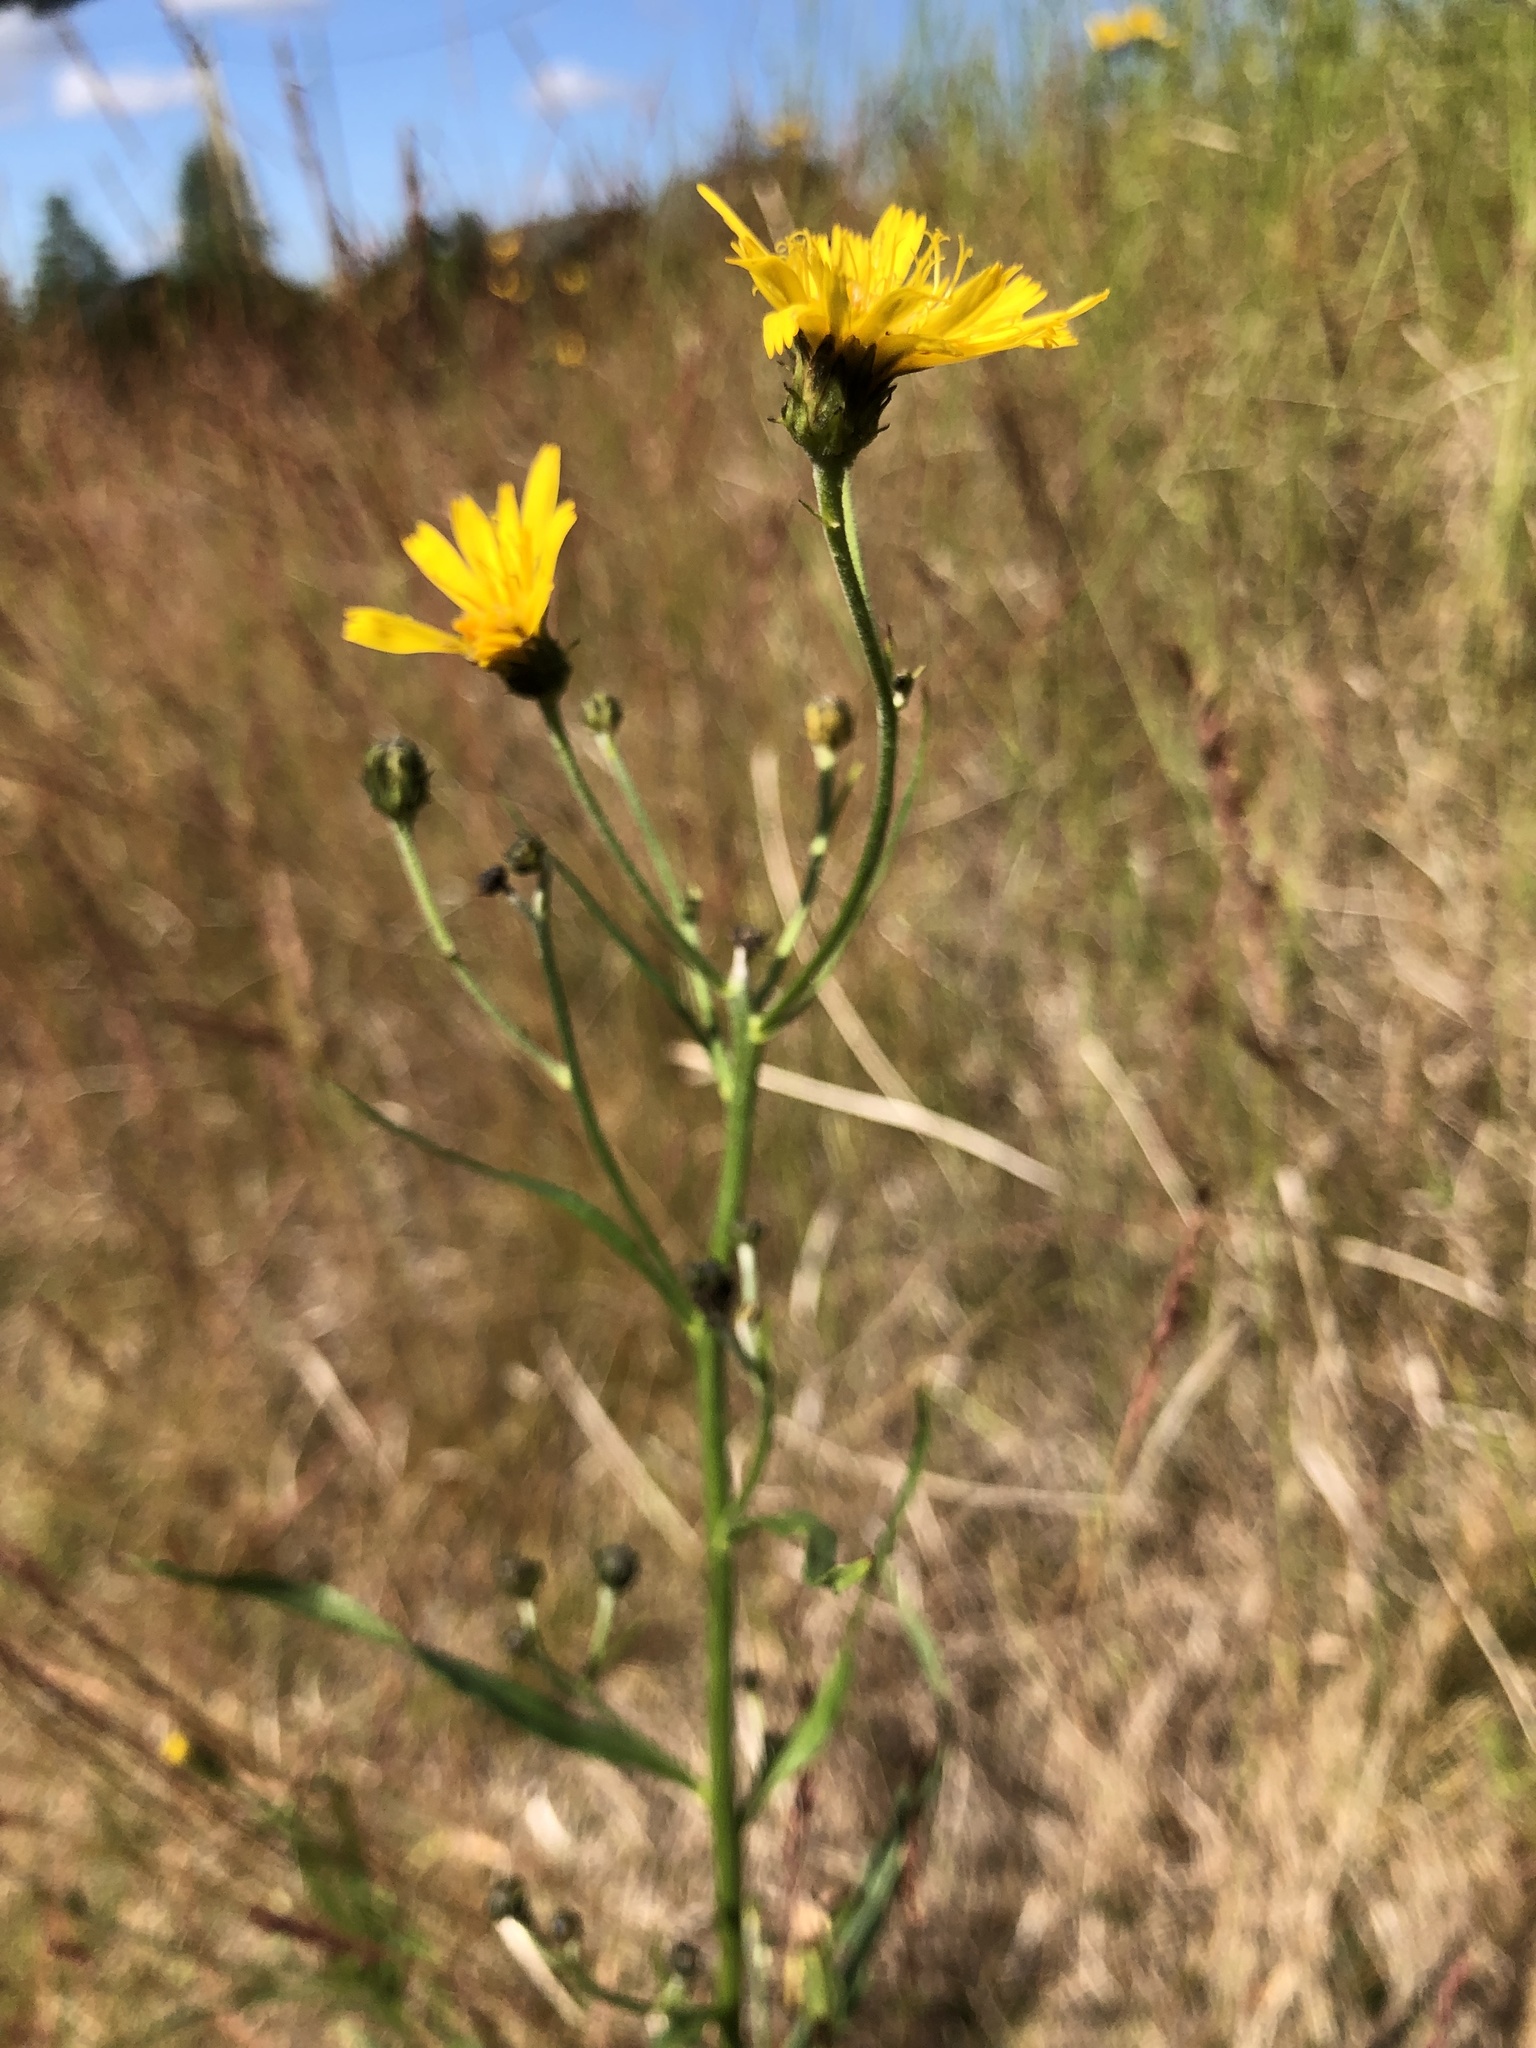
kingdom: Plantae
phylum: Tracheophyta
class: Magnoliopsida
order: Asterales
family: Asteraceae
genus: Hieracium
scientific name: Hieracium umbellatum
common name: Northern hawkweed
